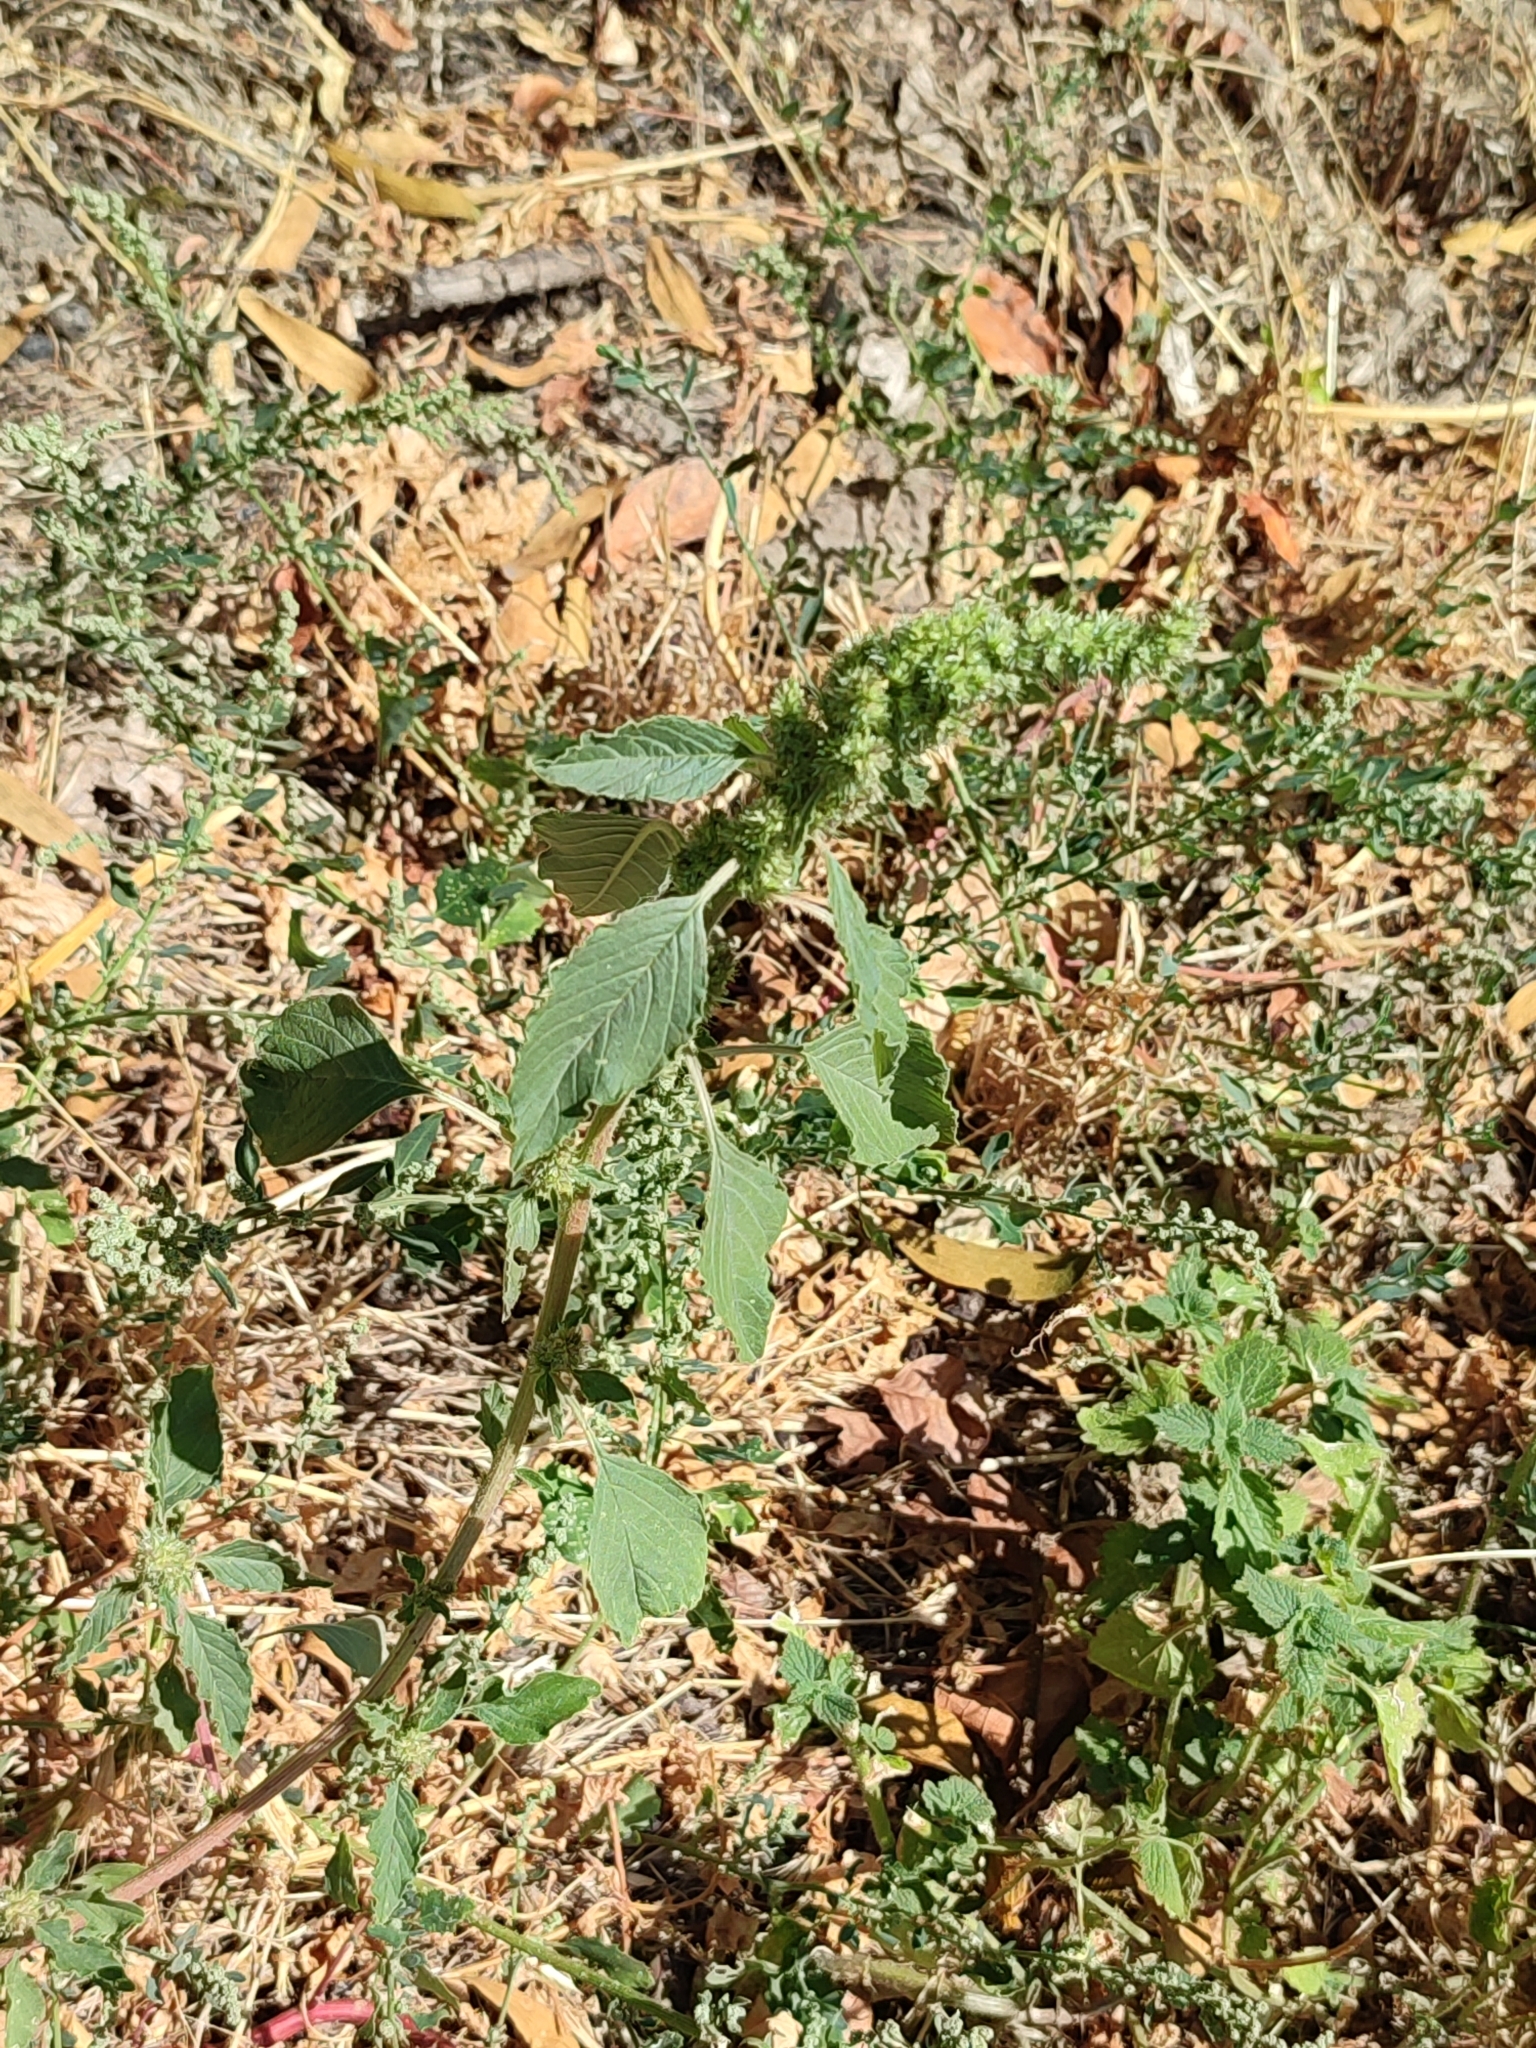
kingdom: Plantae
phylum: Tracheophyta
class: Magnoliopsida
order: Caryophyllales
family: Amaranthaceae
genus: Amaranthus
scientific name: Amaranthus retroflexus
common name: Redroot amaranth
